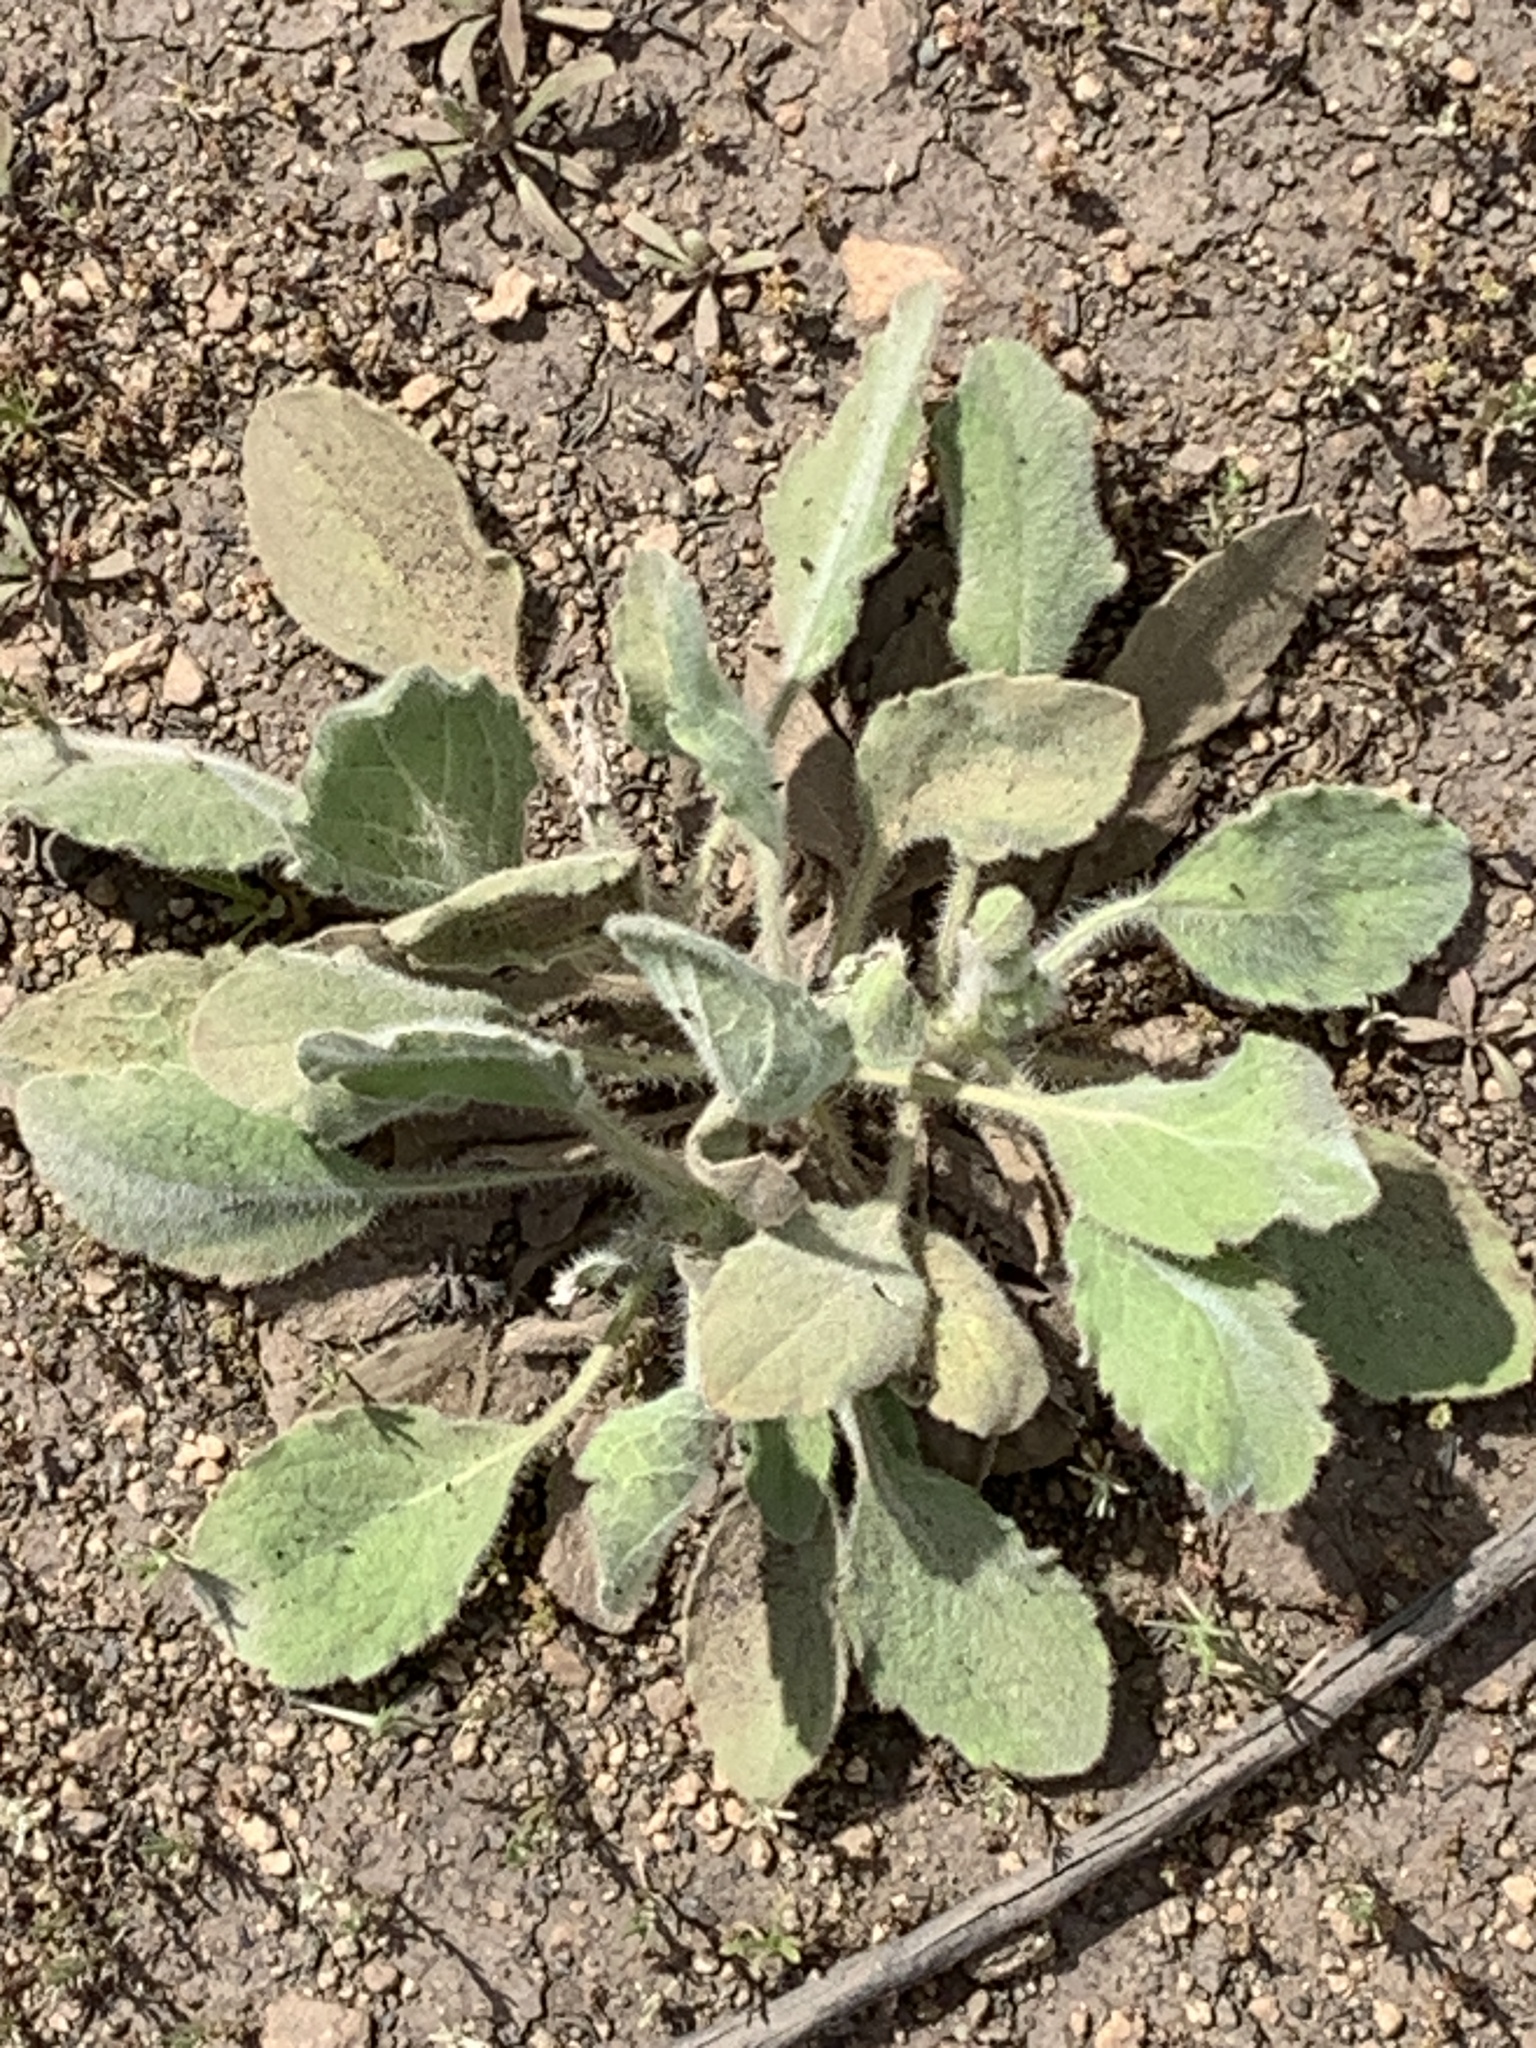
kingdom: Plantae
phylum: Tracheophyta
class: Magnoliopsida
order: Asterales
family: Asteraceae
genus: Heterotheca
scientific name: Heterotheca grandiflora
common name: Telegraphweed
